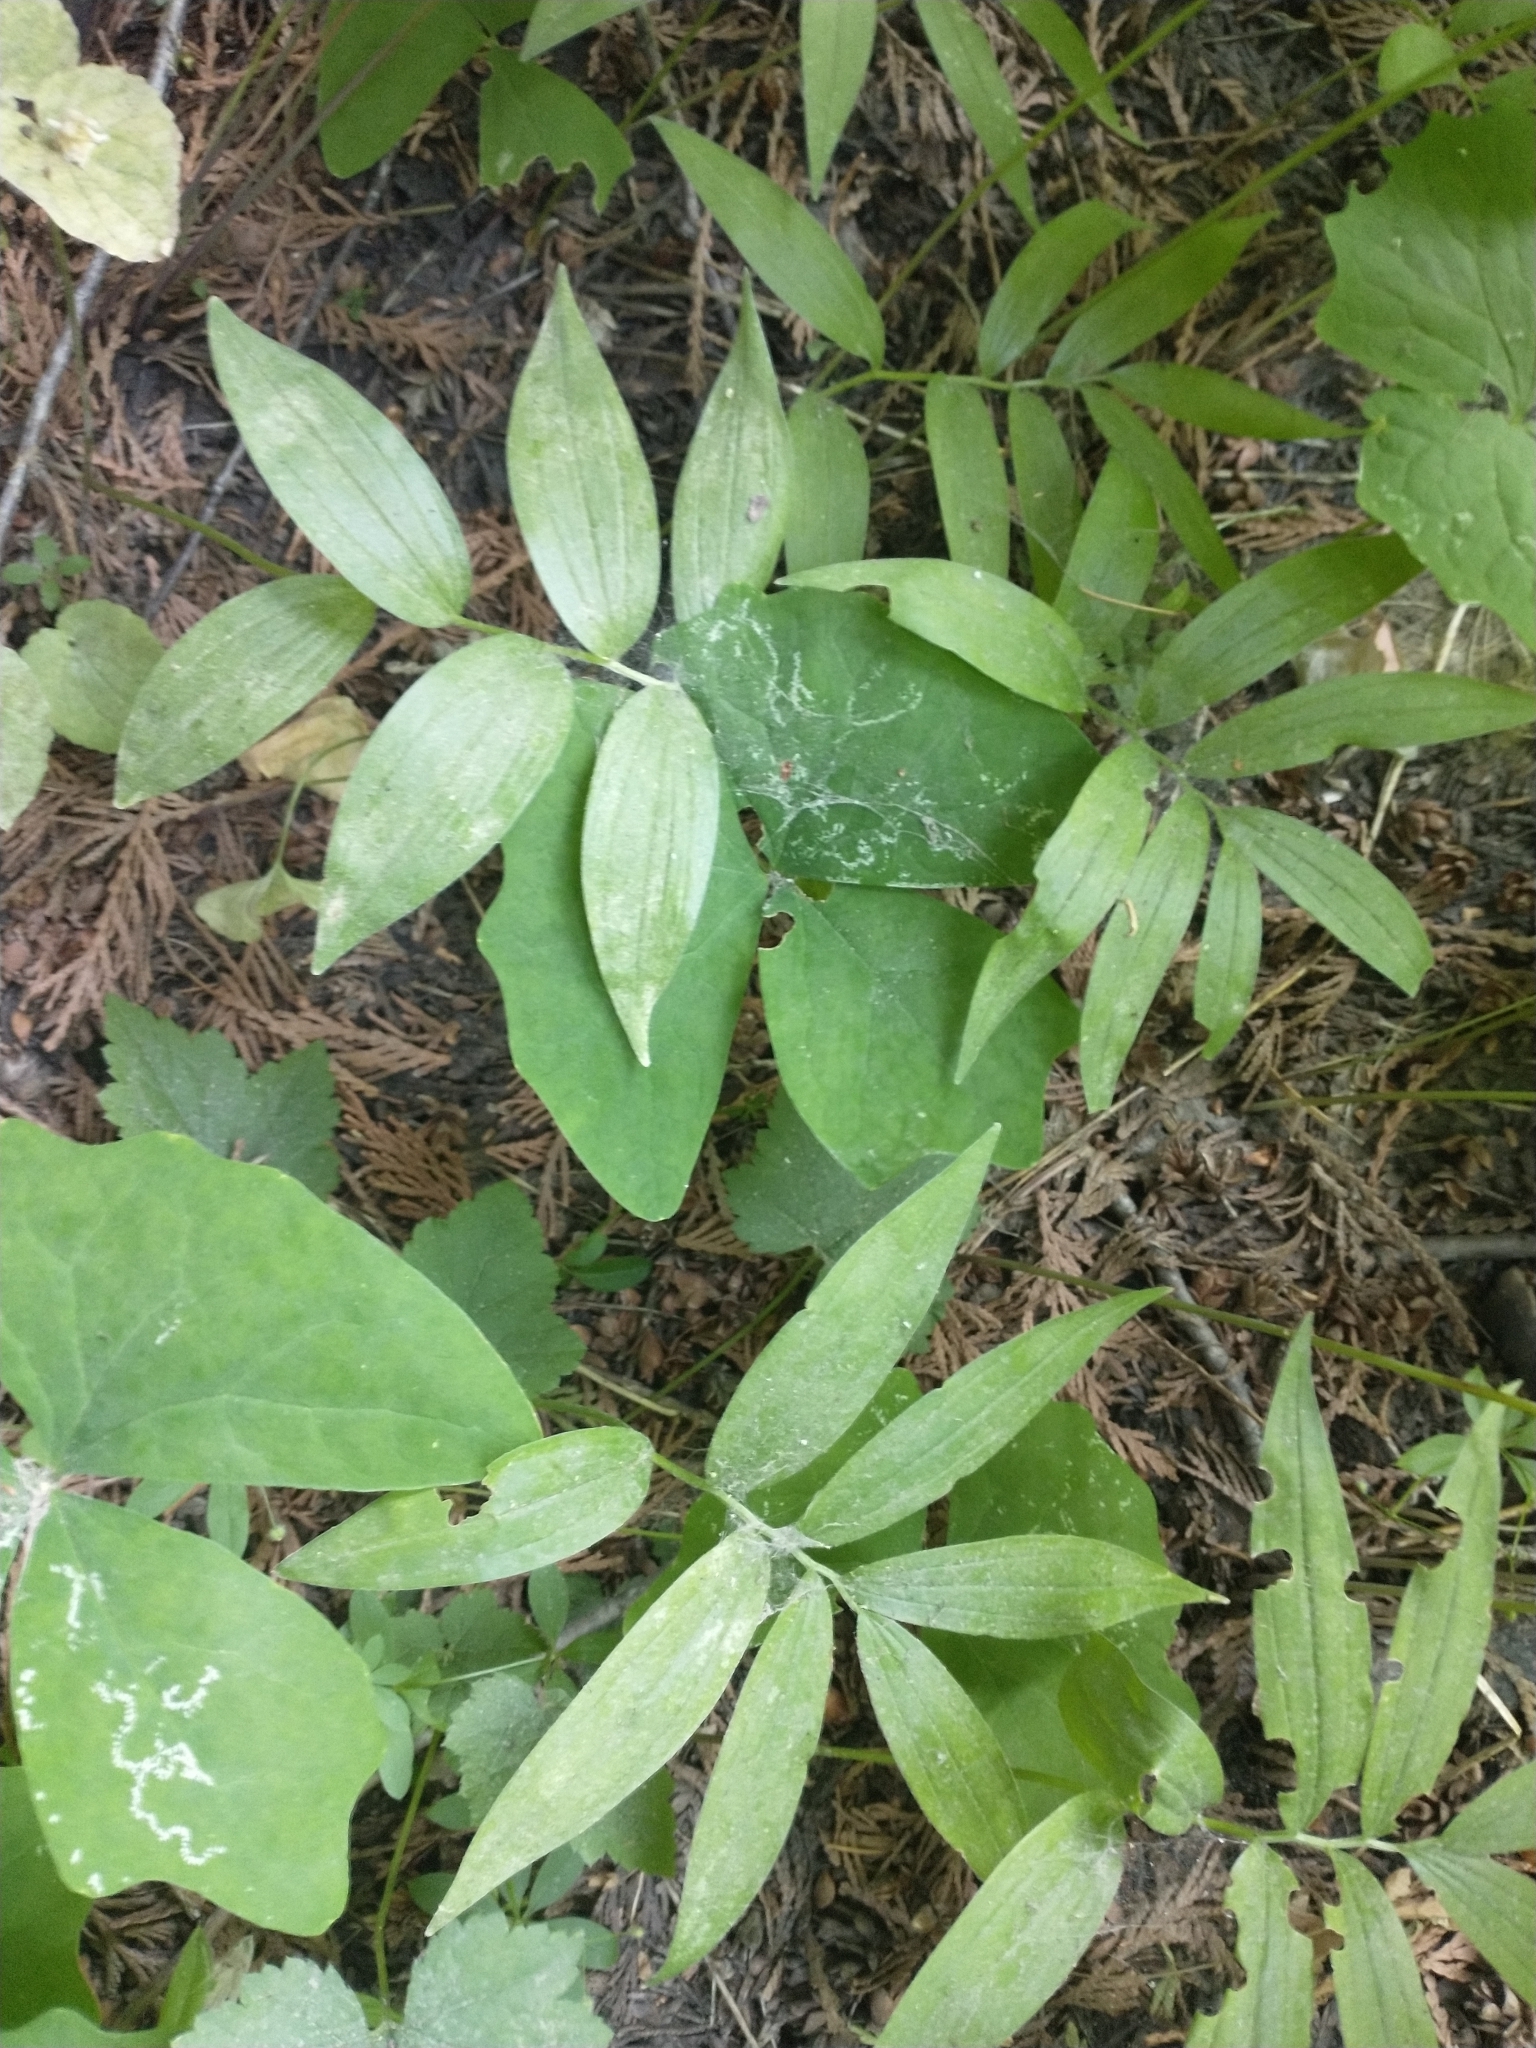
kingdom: Plantae
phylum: Tracheophyta
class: Liliopsida
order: Asparagales
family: Asparagaceae
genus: Maianthemum
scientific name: Maianthemum stellatum
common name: Little false solomon's seal
